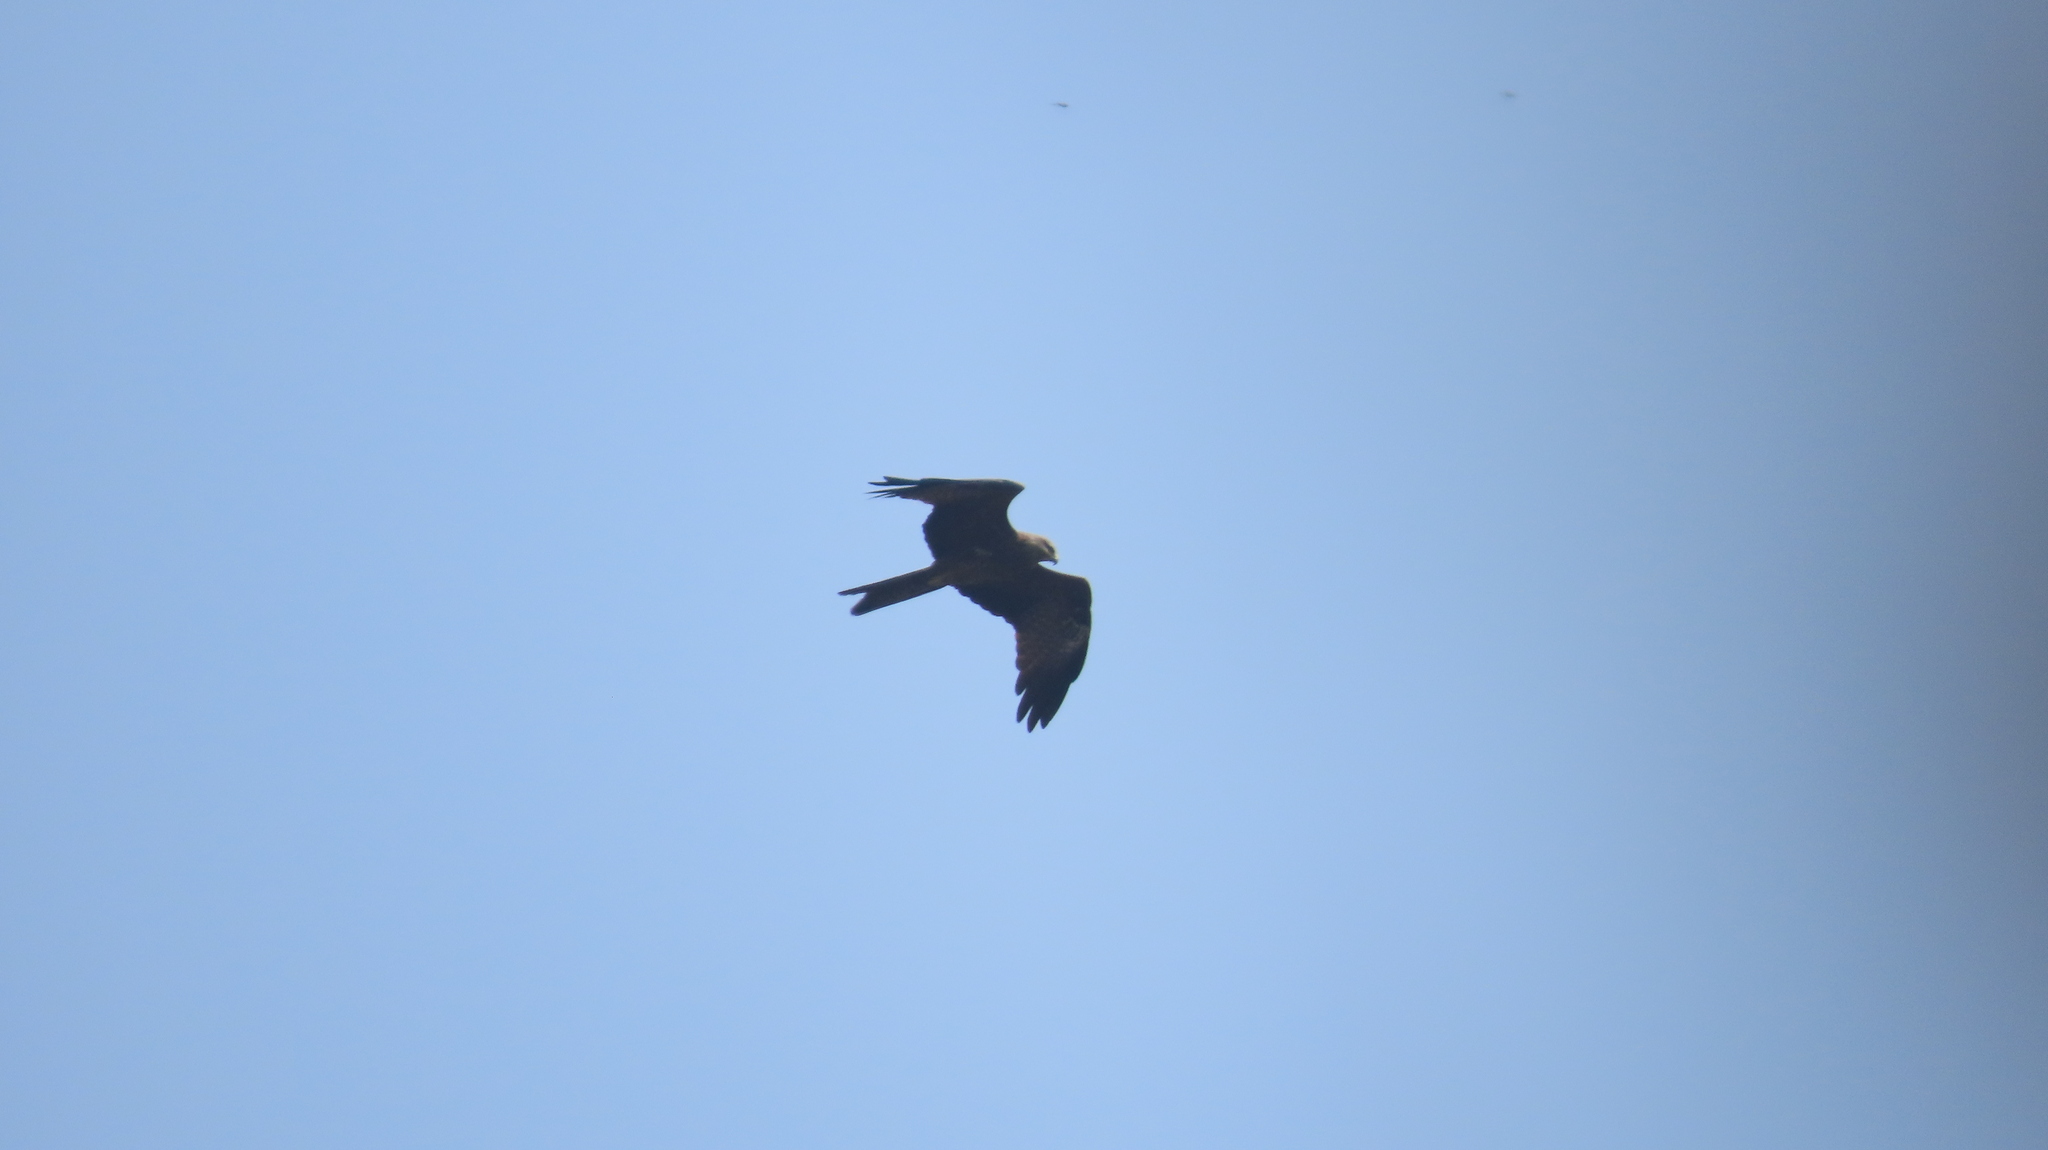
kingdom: Animalia
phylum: Chordata
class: Aves
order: Accipitriformes
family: Accipitridae
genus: Milvus
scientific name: Milvus migrans
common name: Black kite
